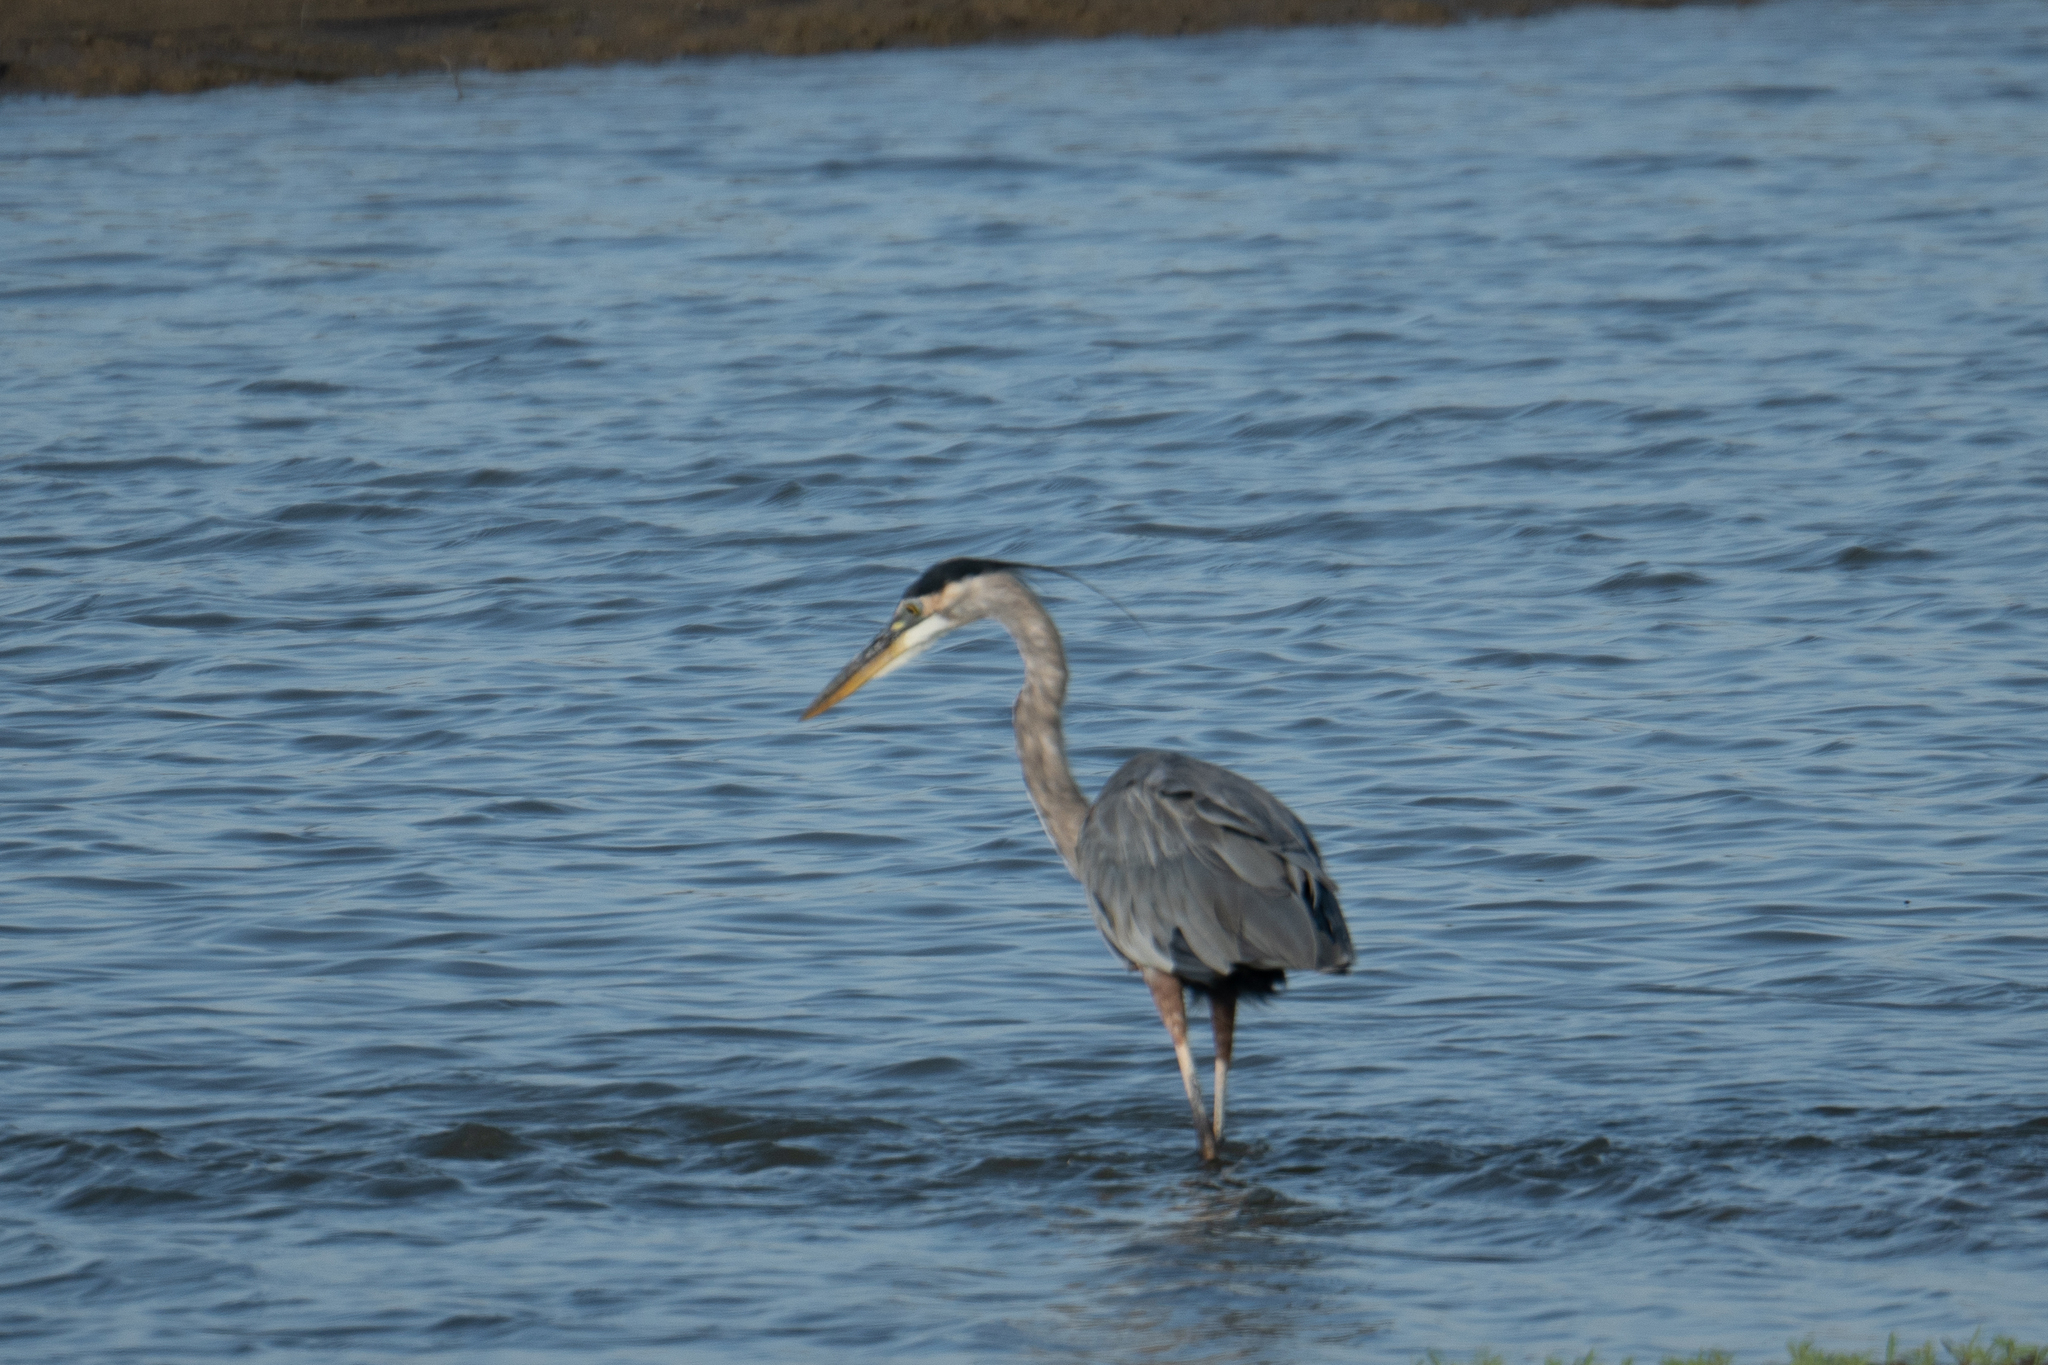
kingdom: Animalia
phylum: Chordata
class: Aves
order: Pelecaniformes
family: Ardeidae
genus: Ardea
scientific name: Ardea herodias
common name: Great blue heron
